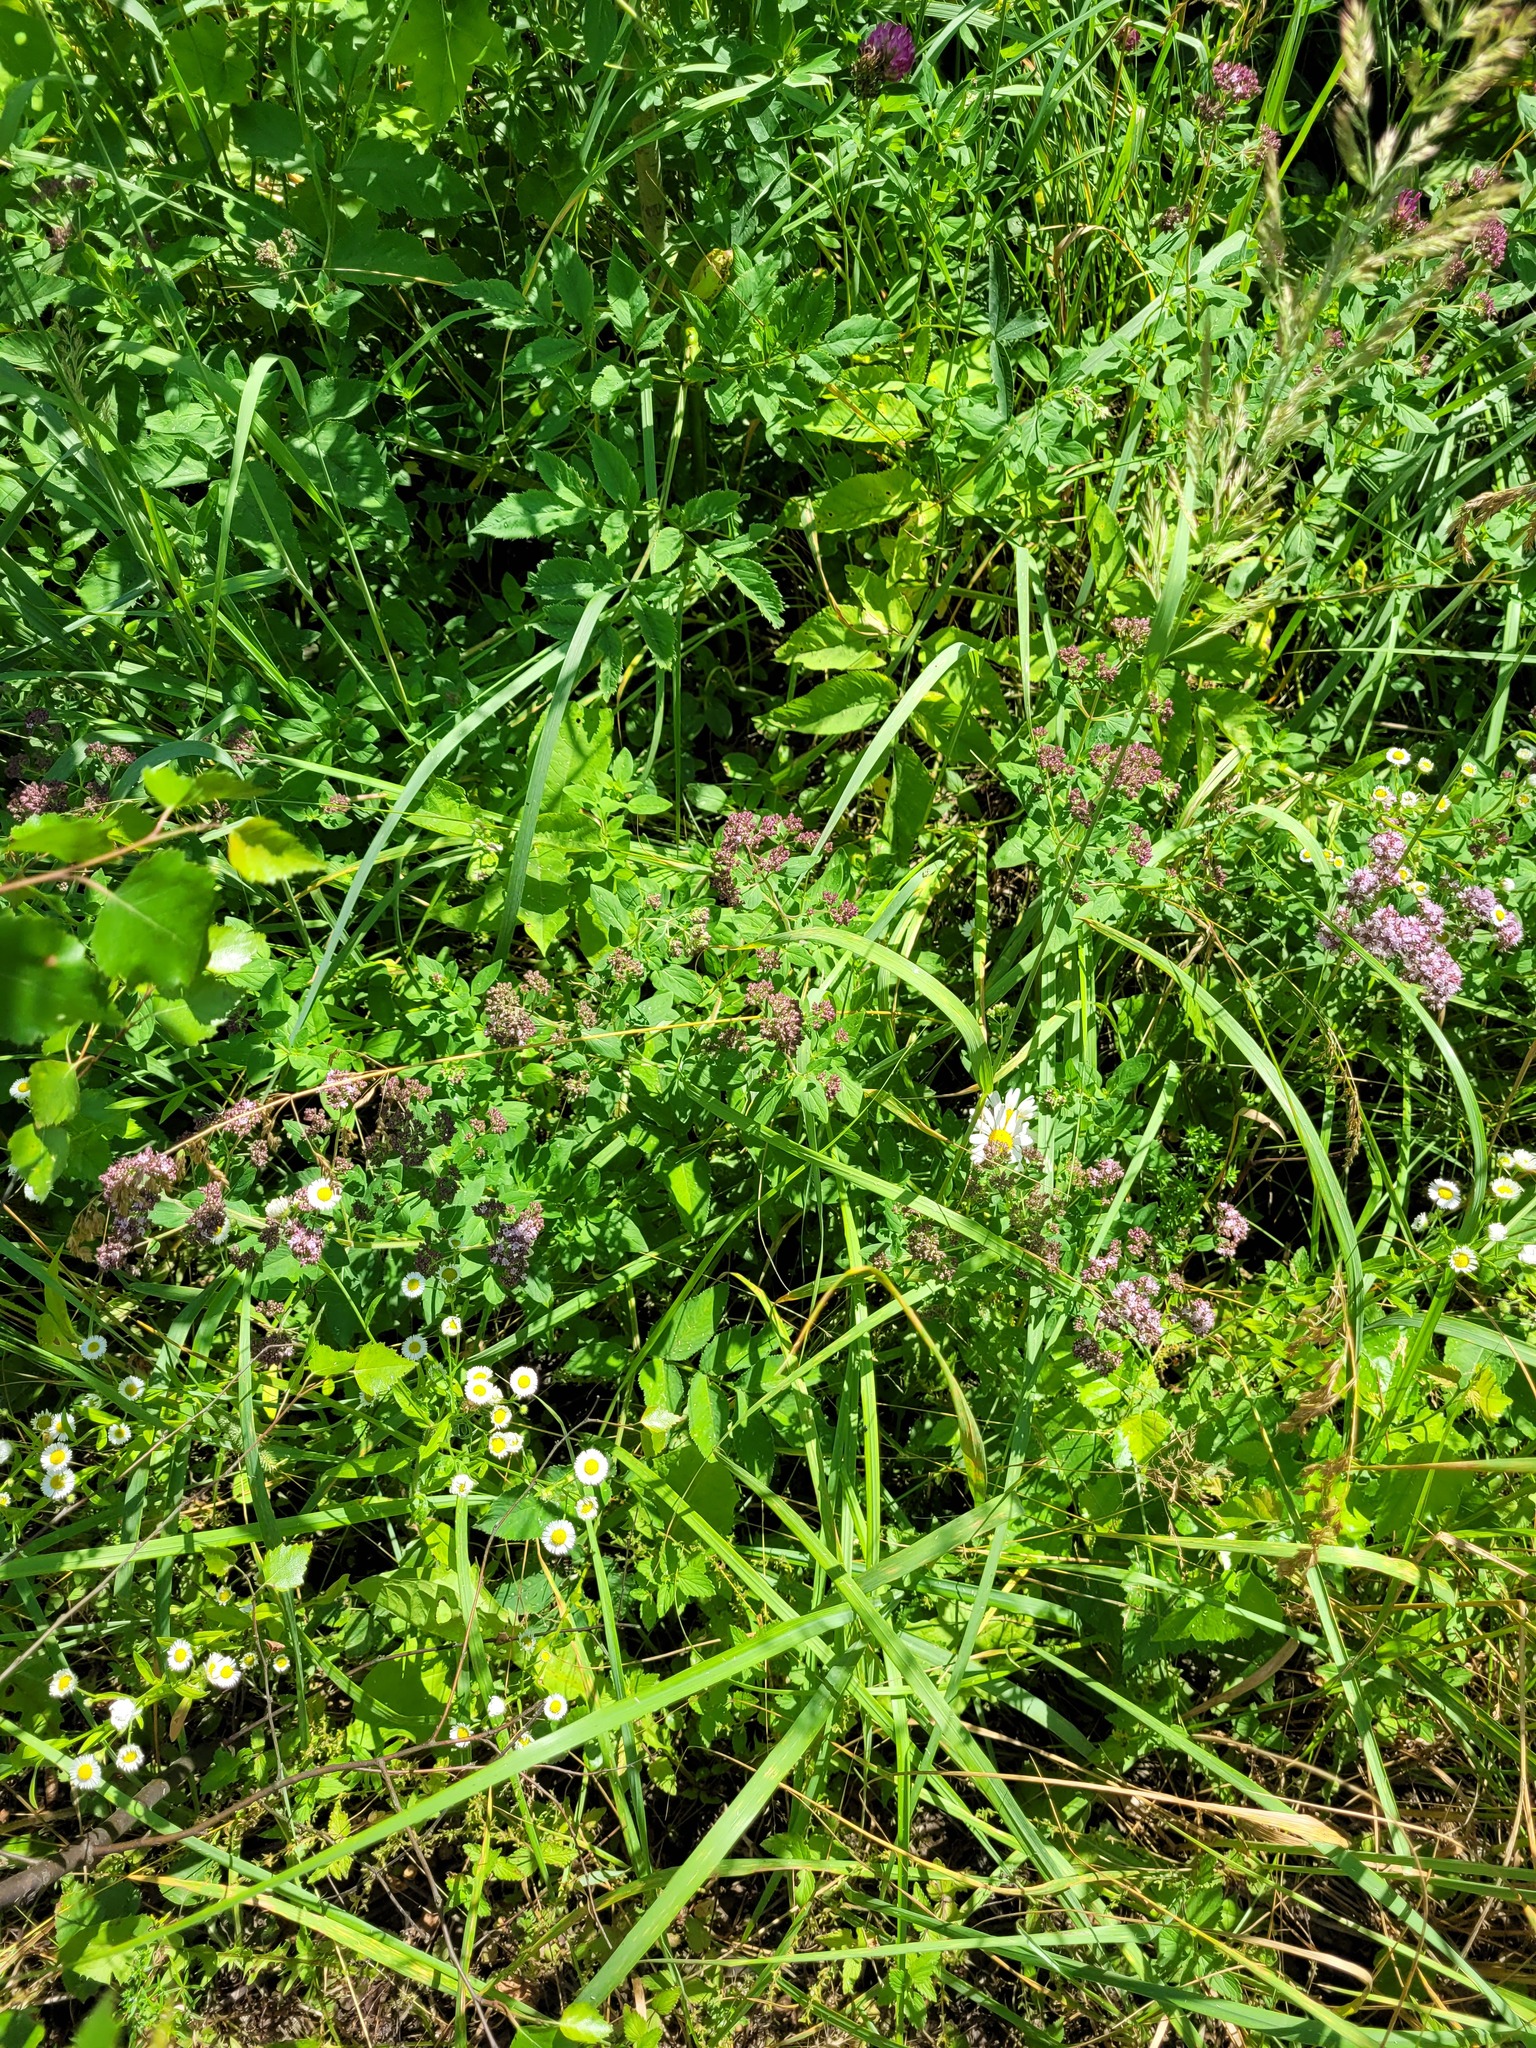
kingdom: Plantae
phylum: Tracheophyta
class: Magnoliopsida
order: Lamiales
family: Lamiaceae
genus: Origanum
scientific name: Origanum vulgare
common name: Wild marjoram
